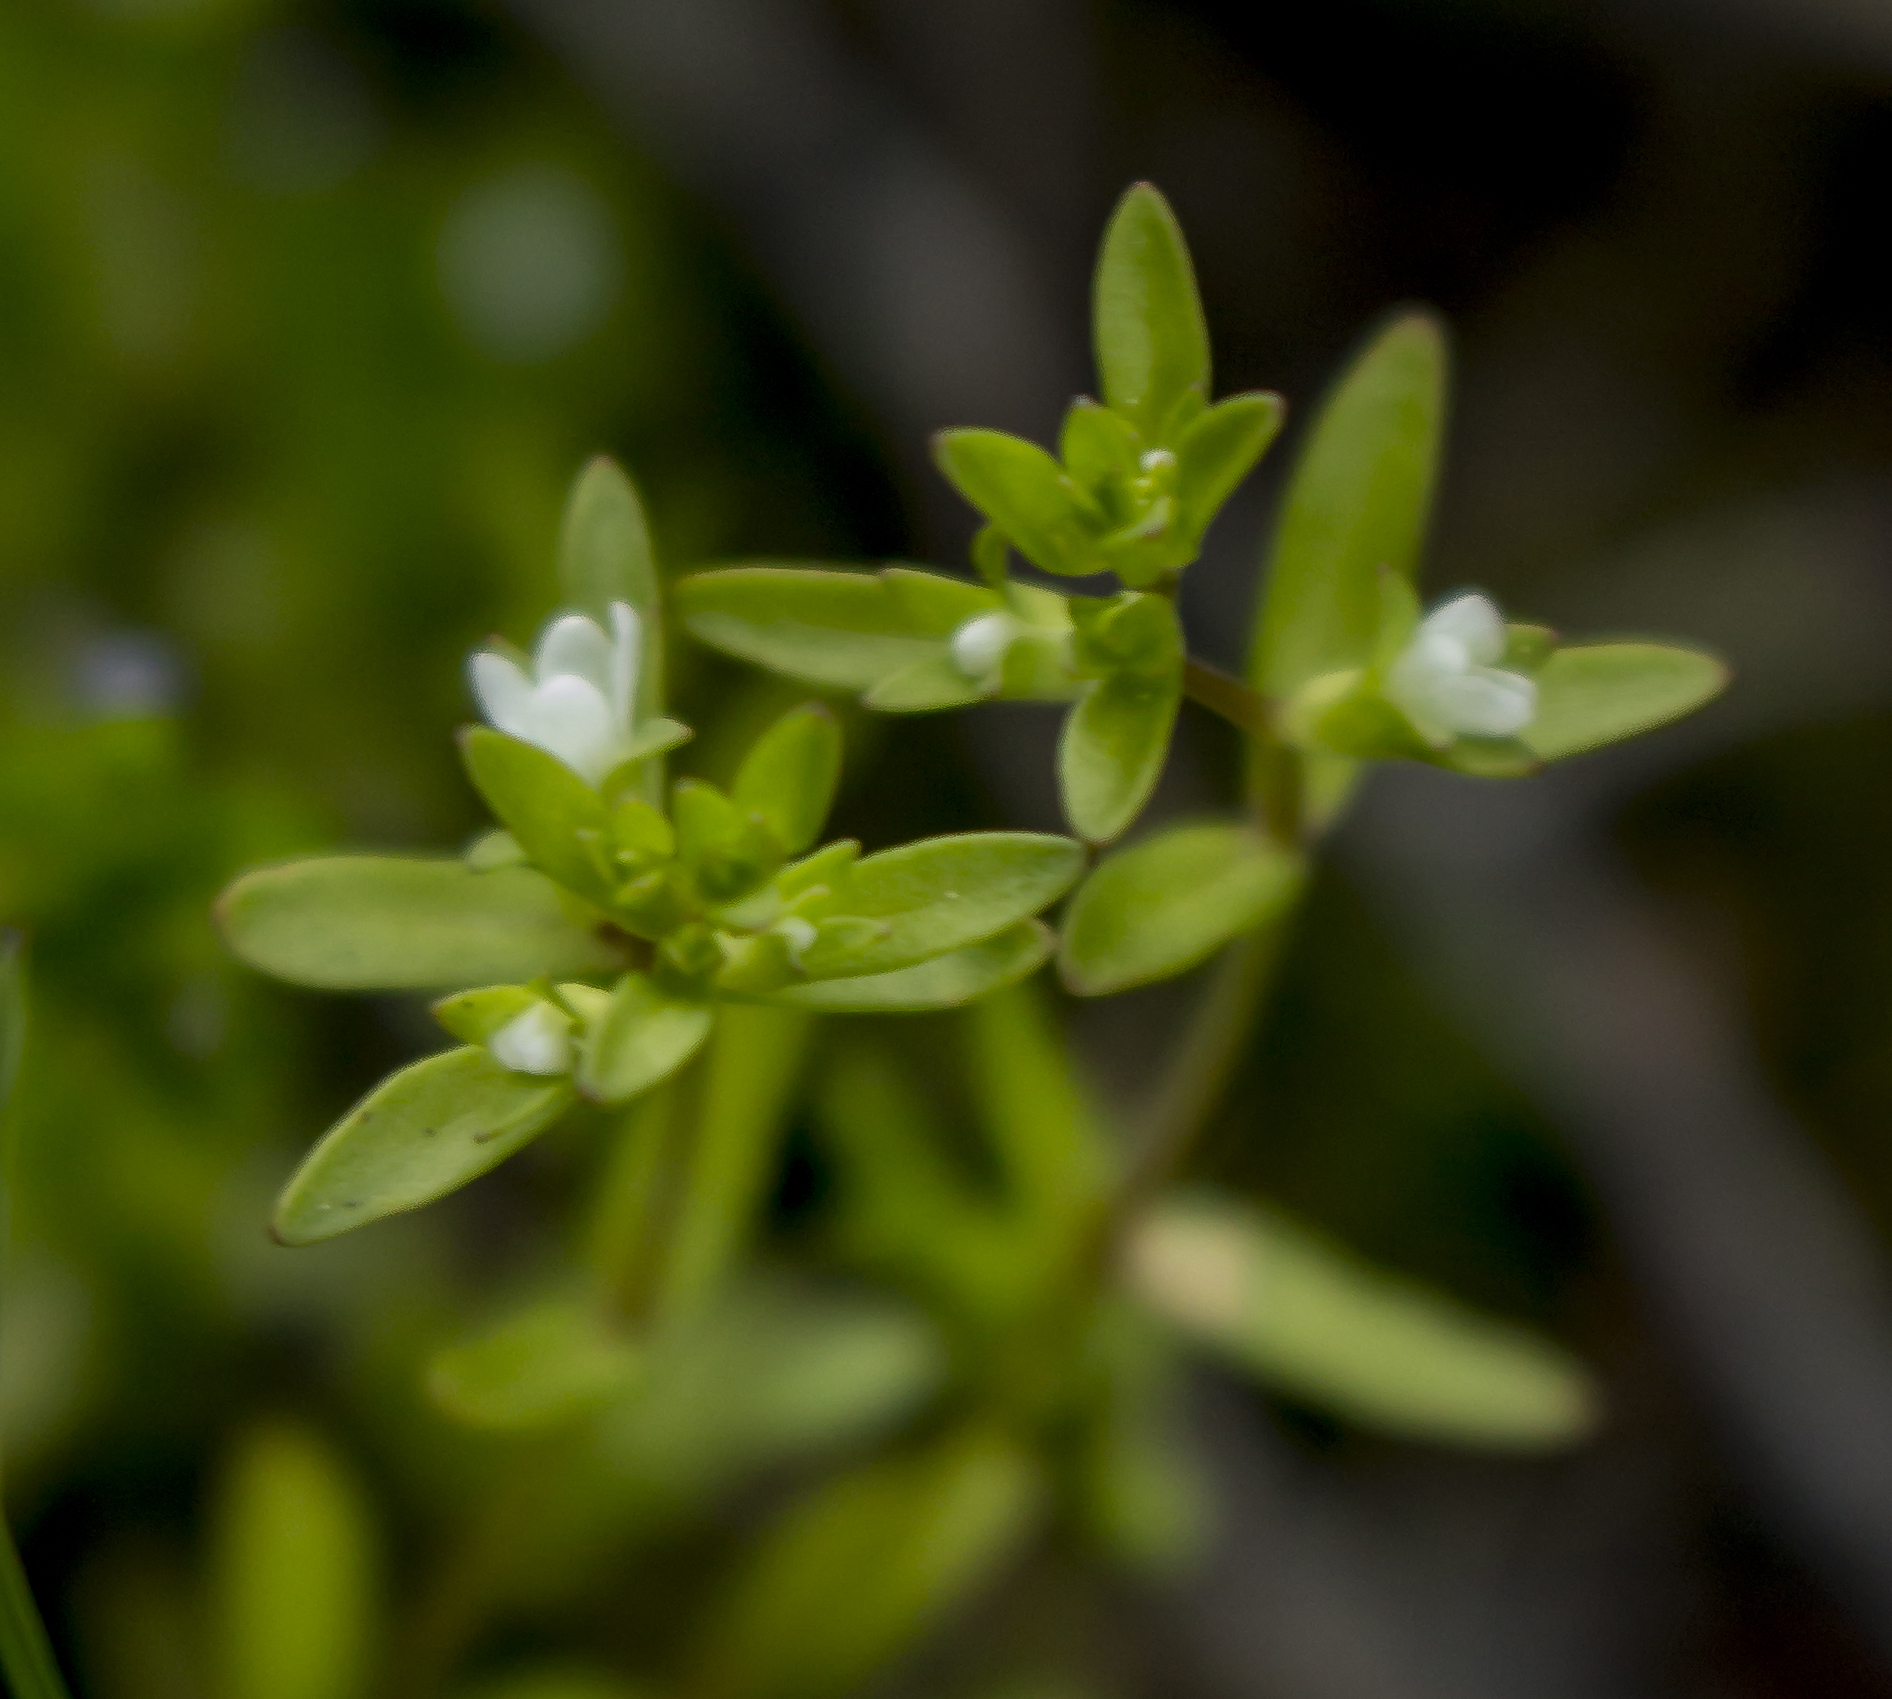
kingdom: Plantae
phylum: Tracheophyta
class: Magnoliopsida
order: Lamiales
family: Plantaginaceae
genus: Veronica
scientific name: Veronica peregrina
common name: Neckweed
